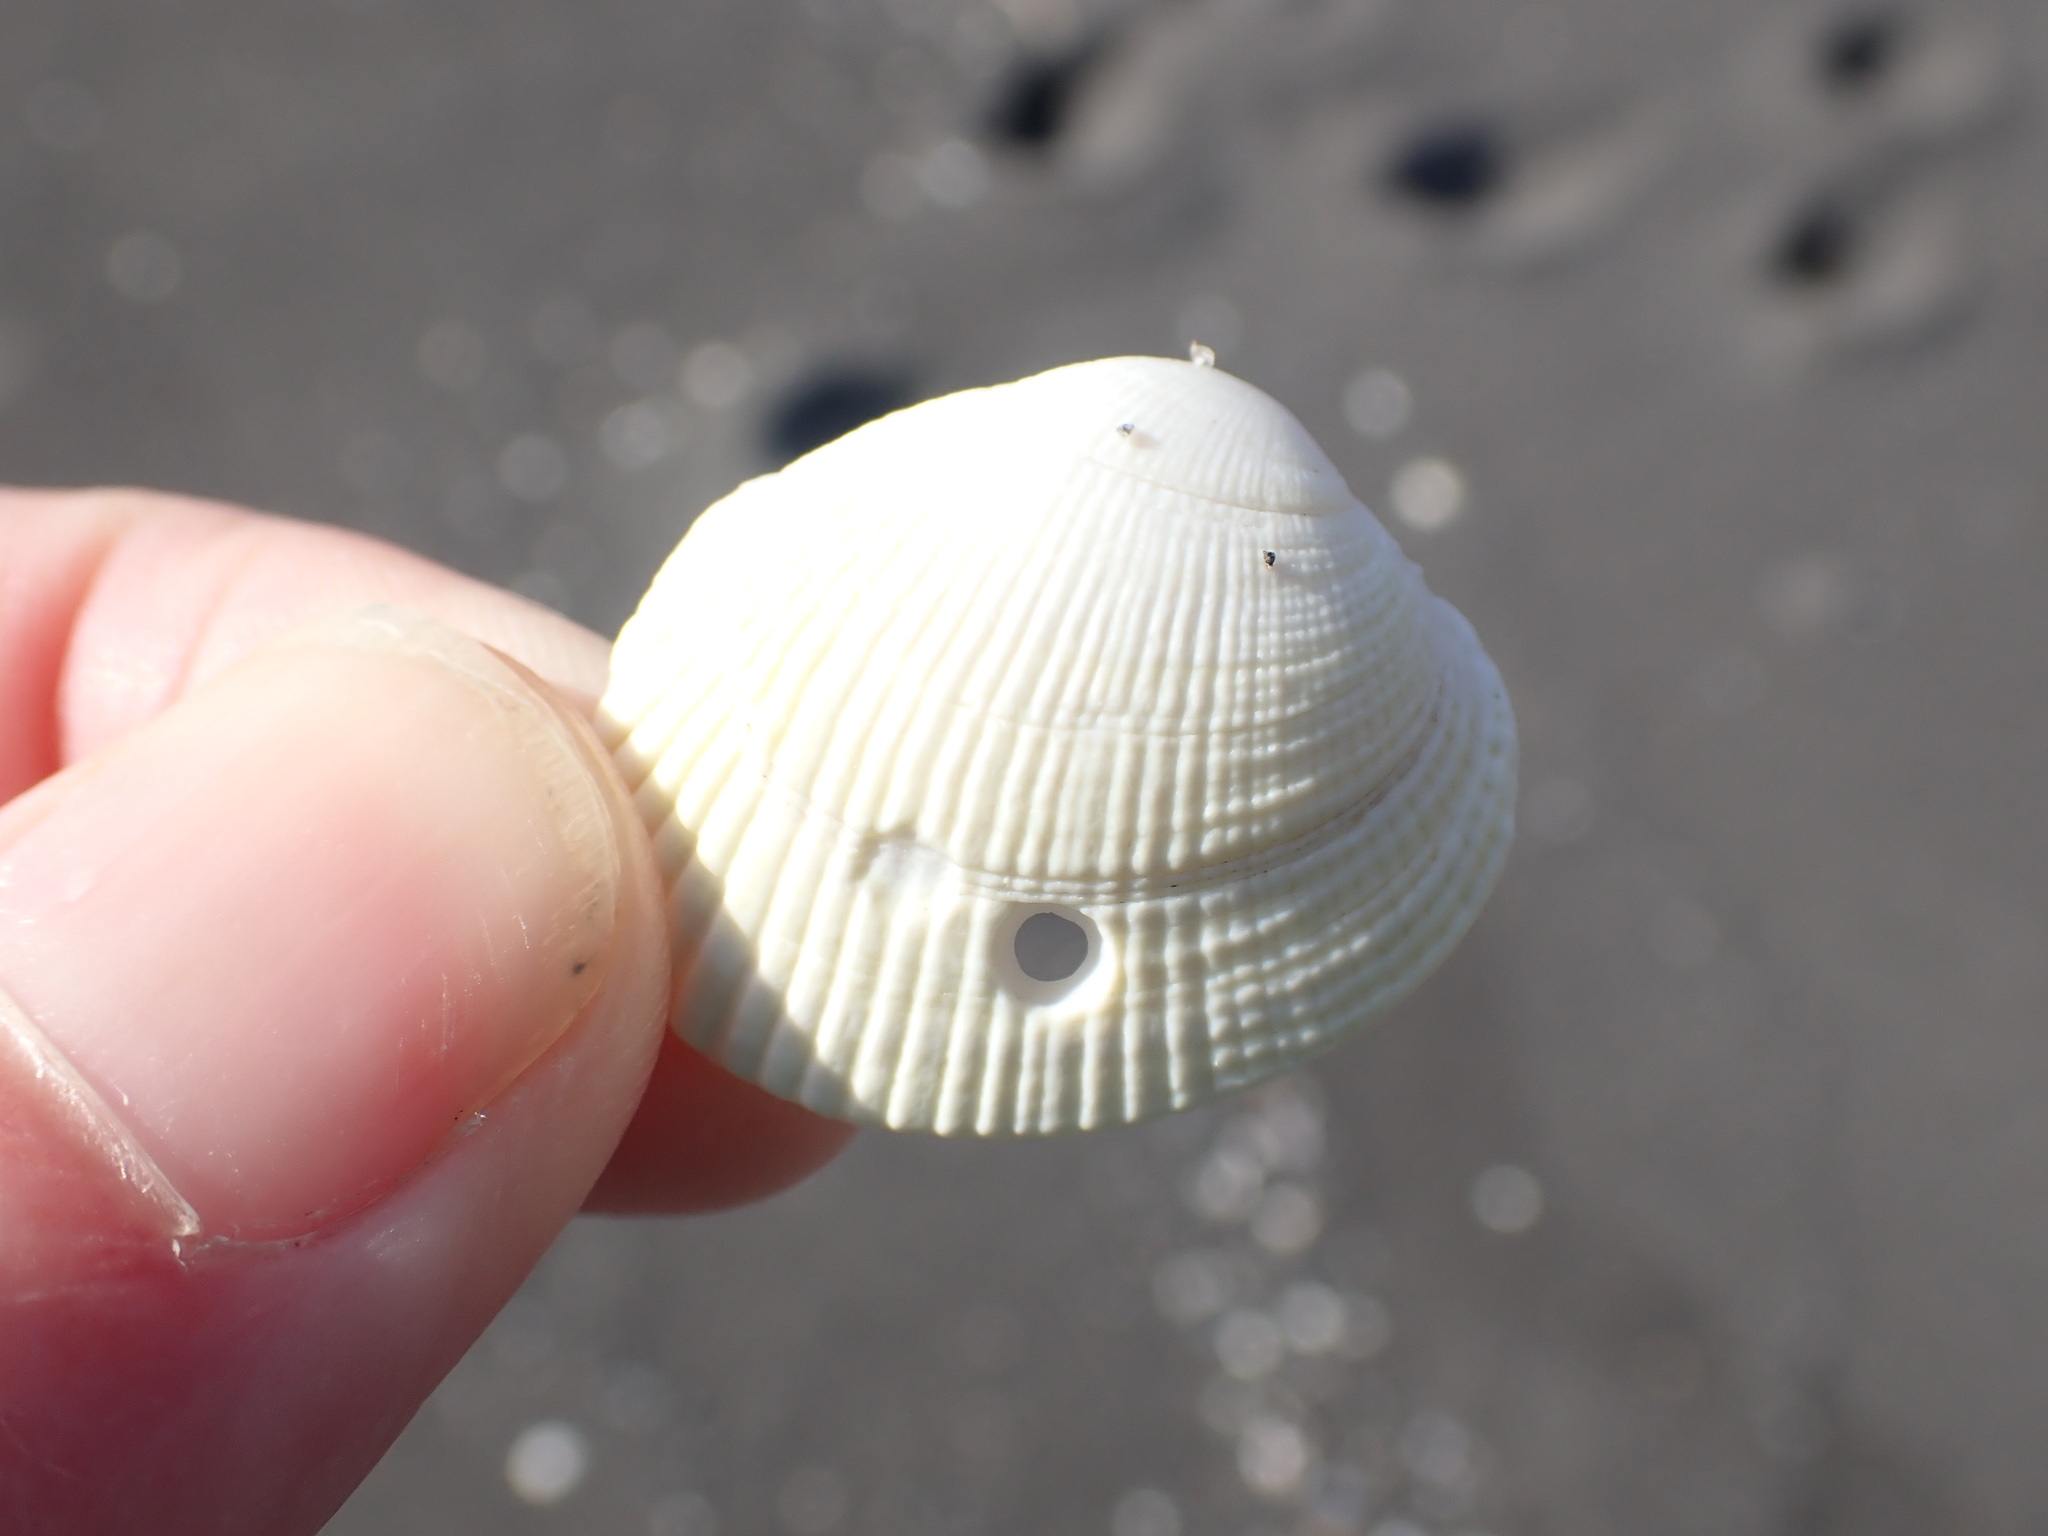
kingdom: Animalia
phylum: Mollusca
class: Bivalvia
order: Venerida
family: Veneridae
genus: Leukoma
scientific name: Leukoma crassicosta
